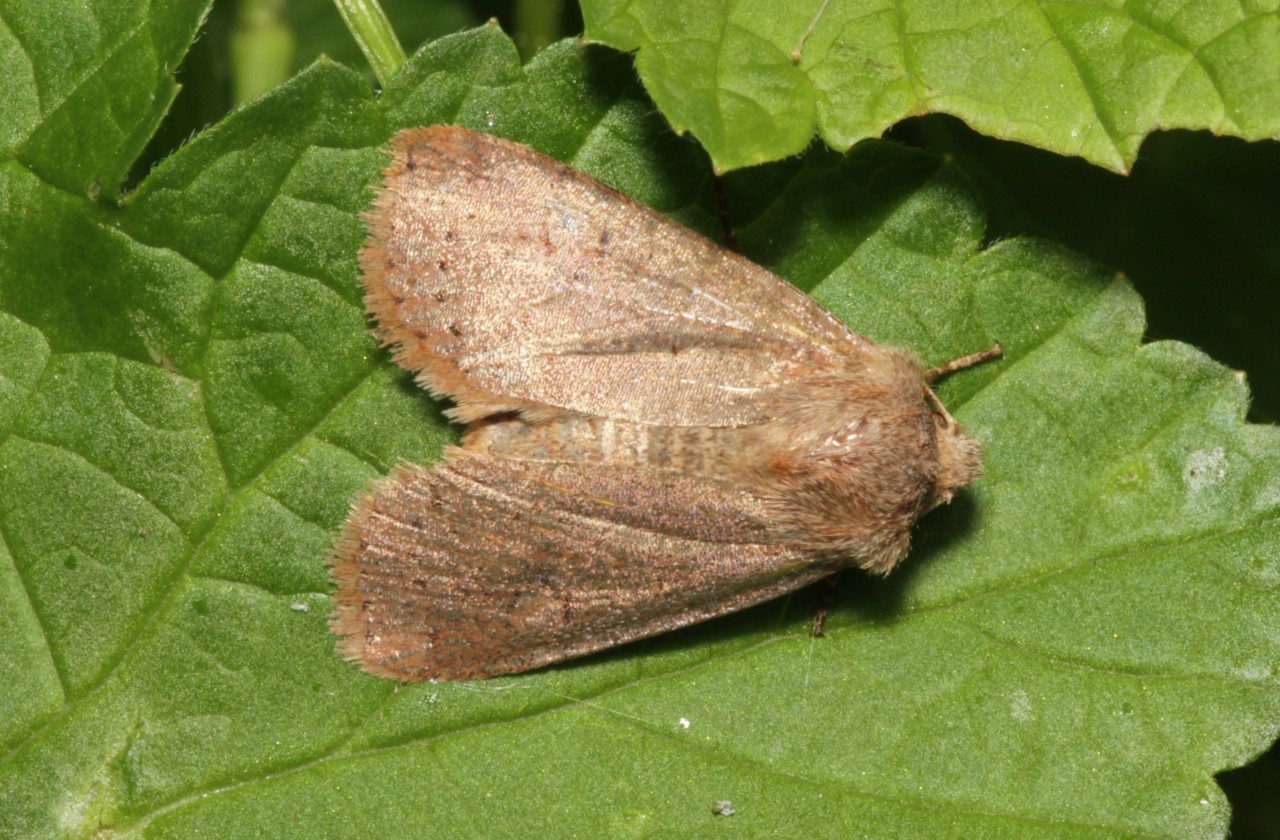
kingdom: Animalia
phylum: Arthropoda
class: Insecta
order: Lepidoptera
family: Noctuidae
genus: Conistra
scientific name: Conistra vaccinii
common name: Chestnut
